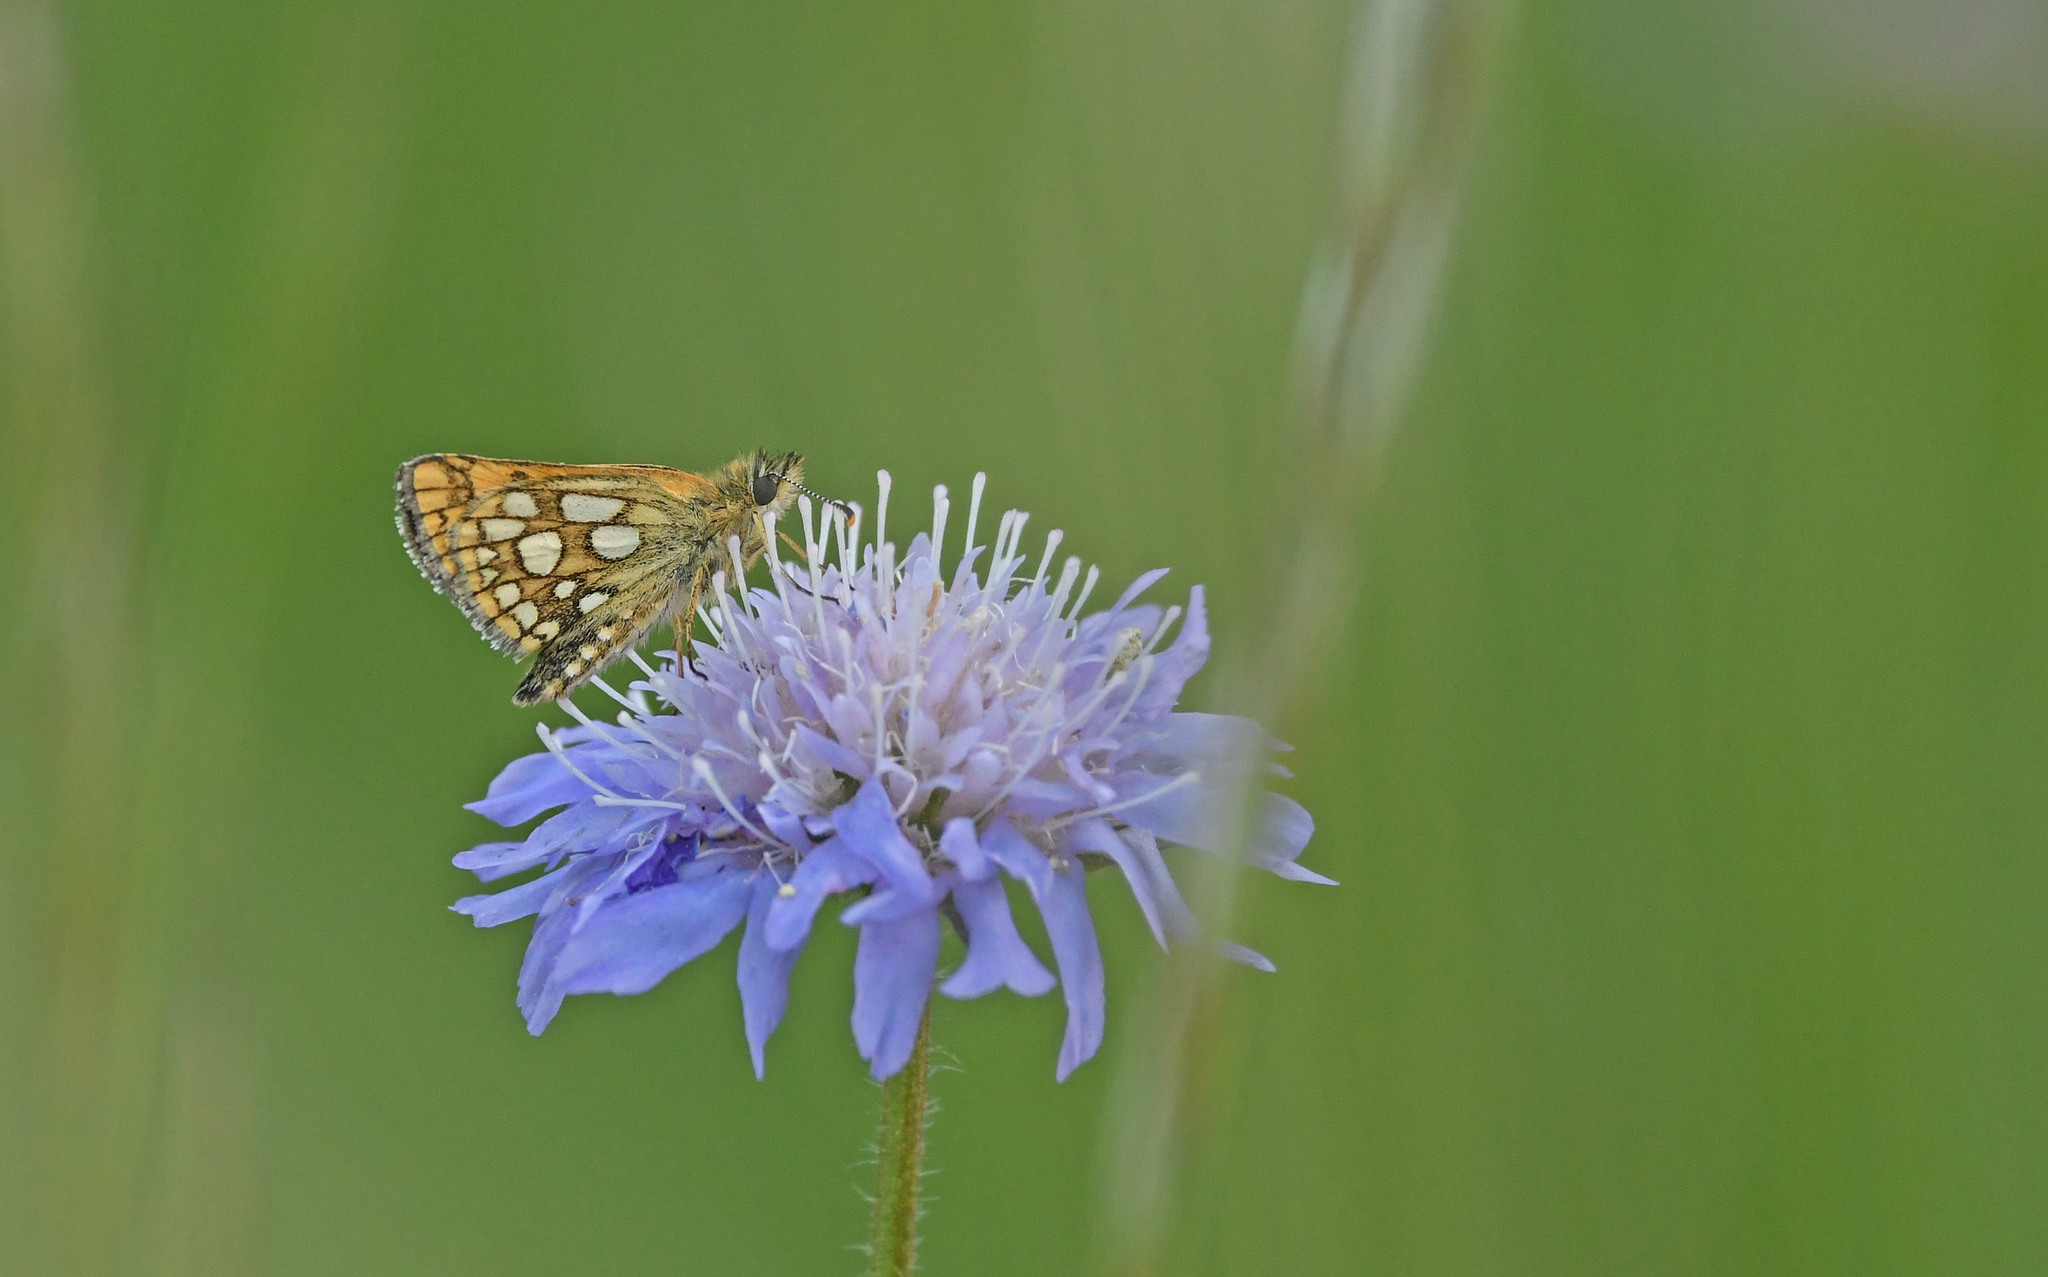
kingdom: Animalia
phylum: Arthropoda
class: Insecta
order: Lepidoptera
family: Hesperiidae
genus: Carterocephalus
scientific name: Carterocephalus palaemon
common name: Chequered skipper
